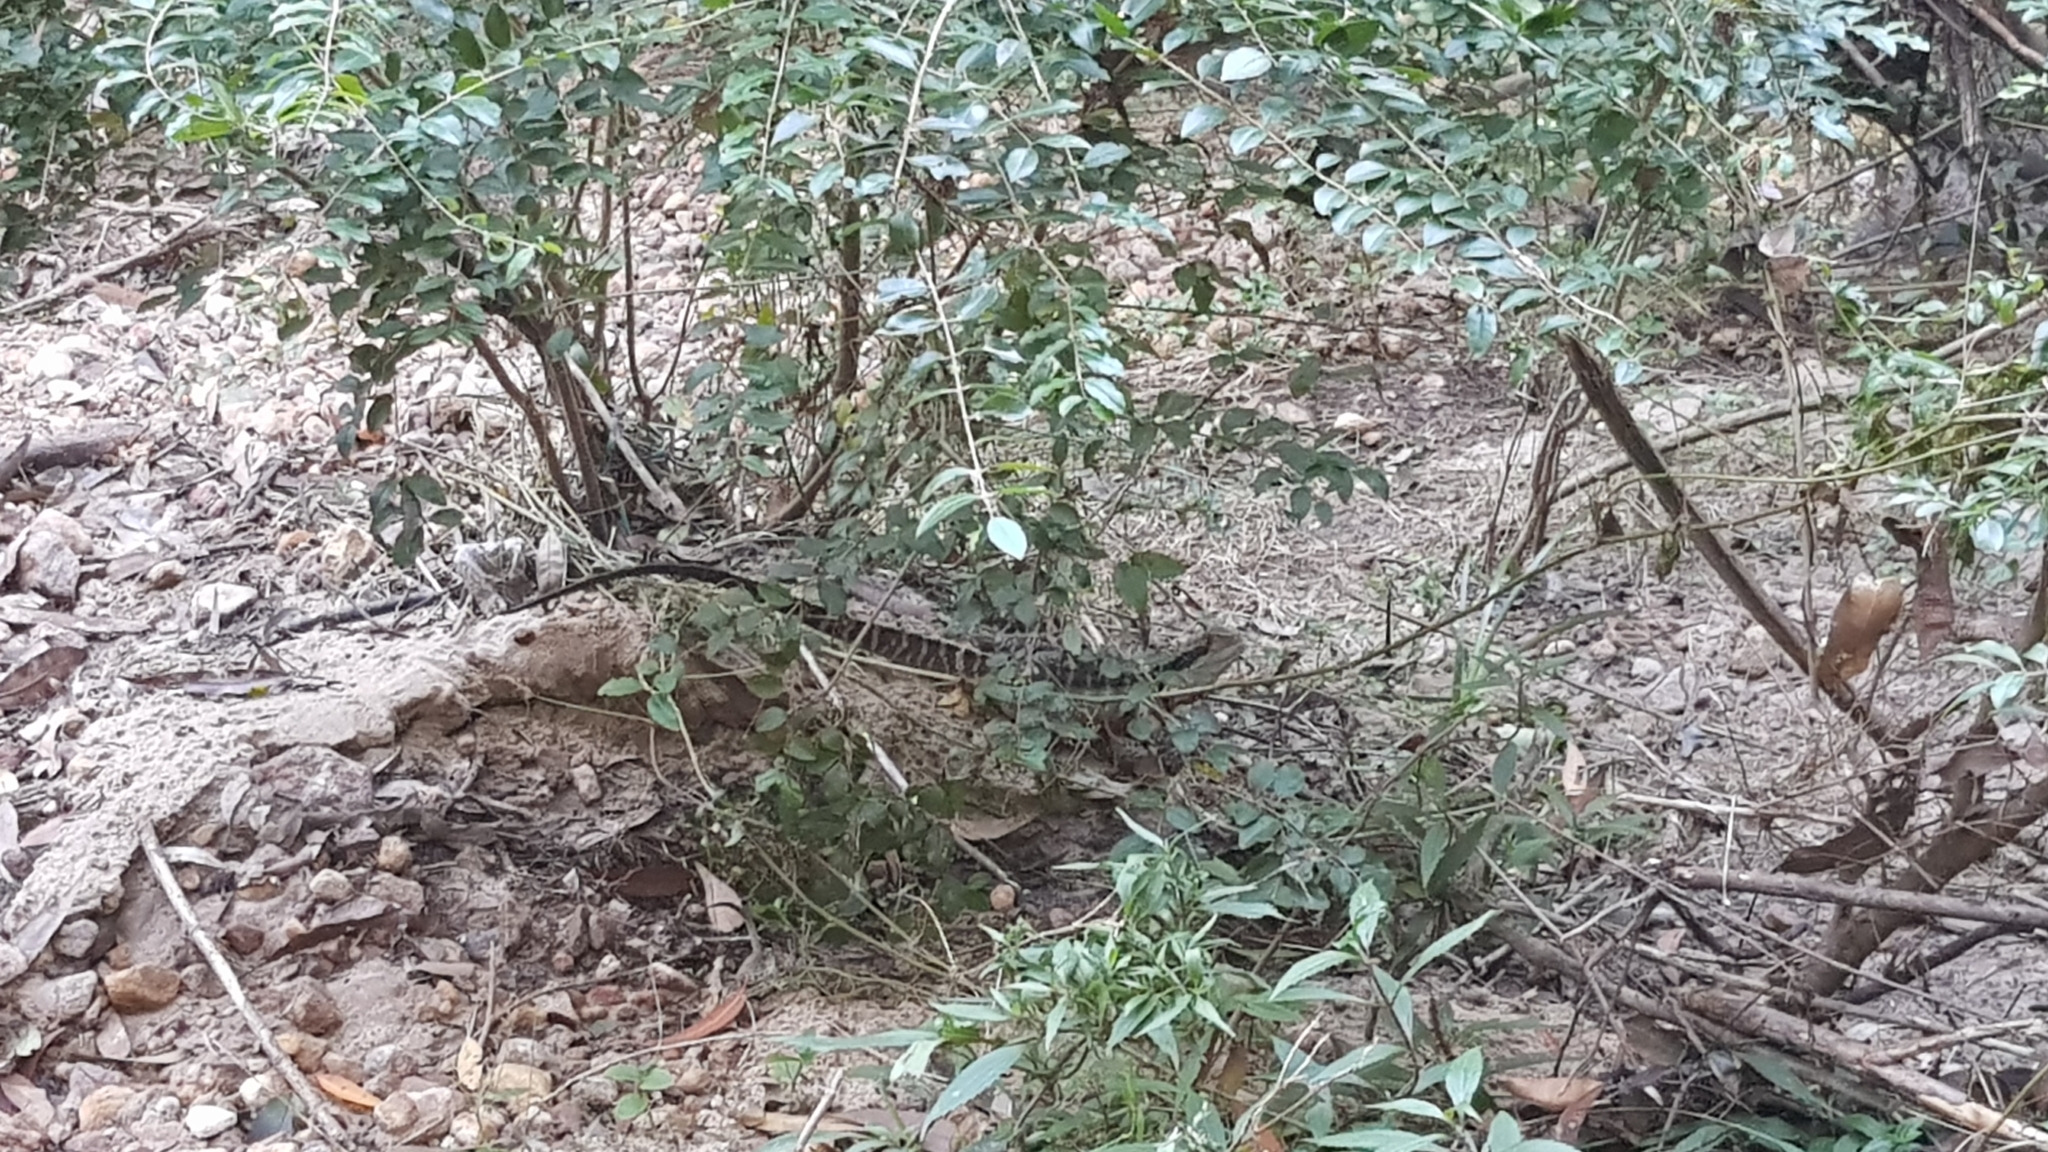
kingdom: Animalia
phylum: Chordata
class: Squamata
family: Agamidae
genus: Intellagama
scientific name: Intellagama lesueurii
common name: Eastern water dragon
